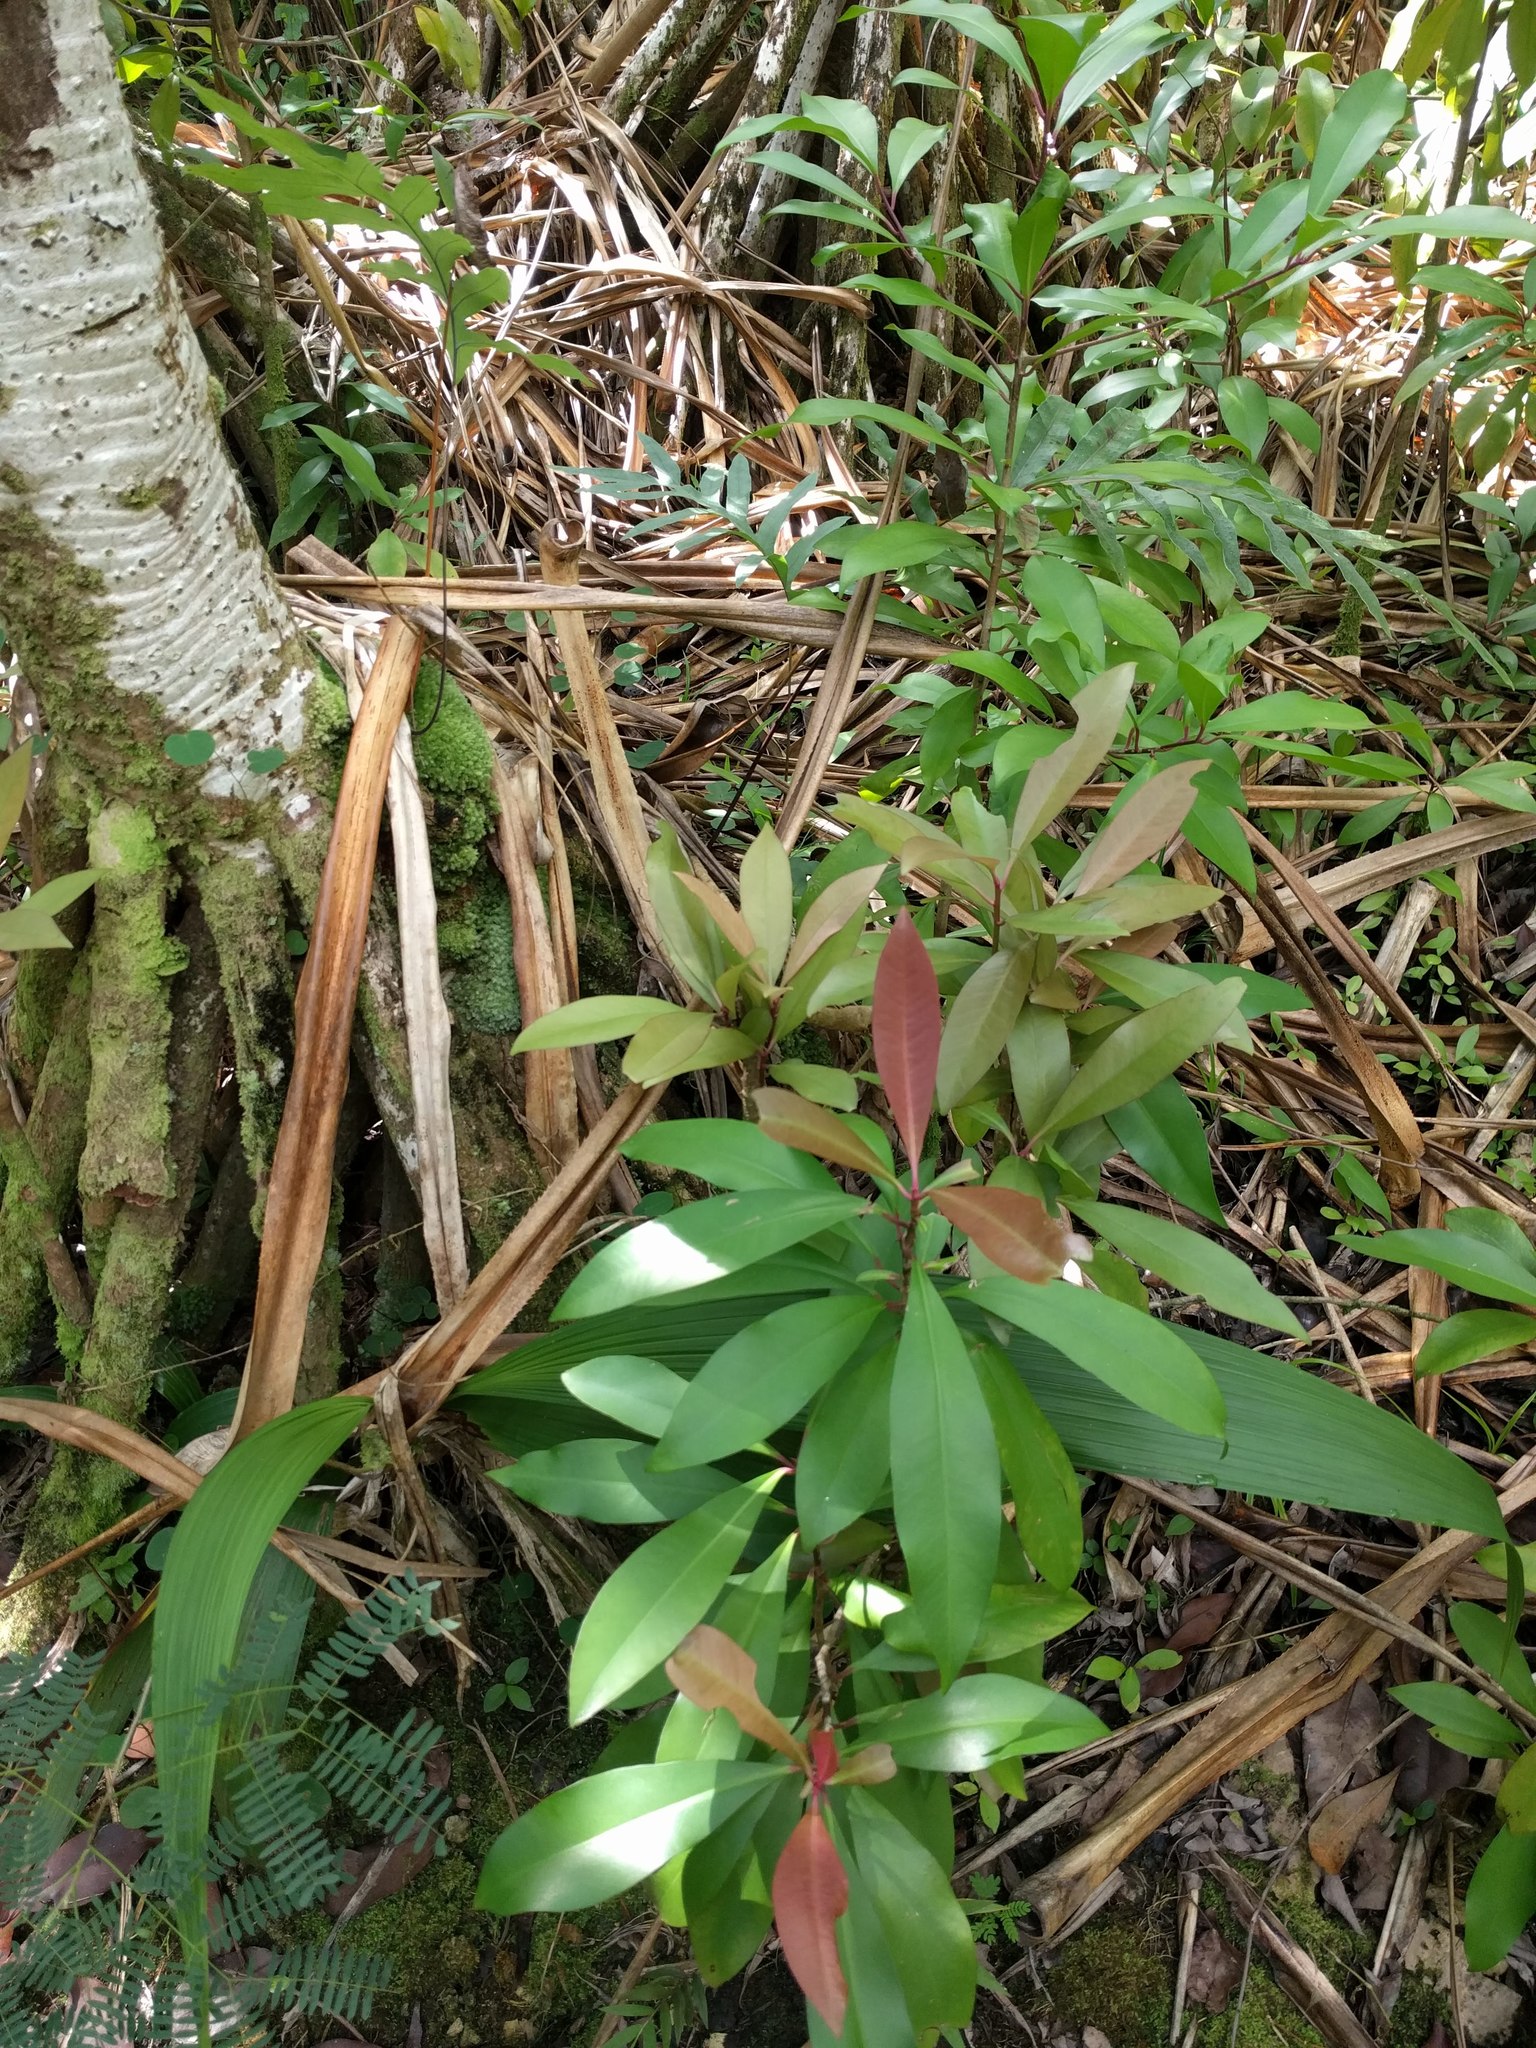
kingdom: Plantae
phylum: Tracheophyta
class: Magnoliopsida
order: Ericales
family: Primulaceae
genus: Ardisia
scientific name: Ardisia elliptica
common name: Shoebutton
